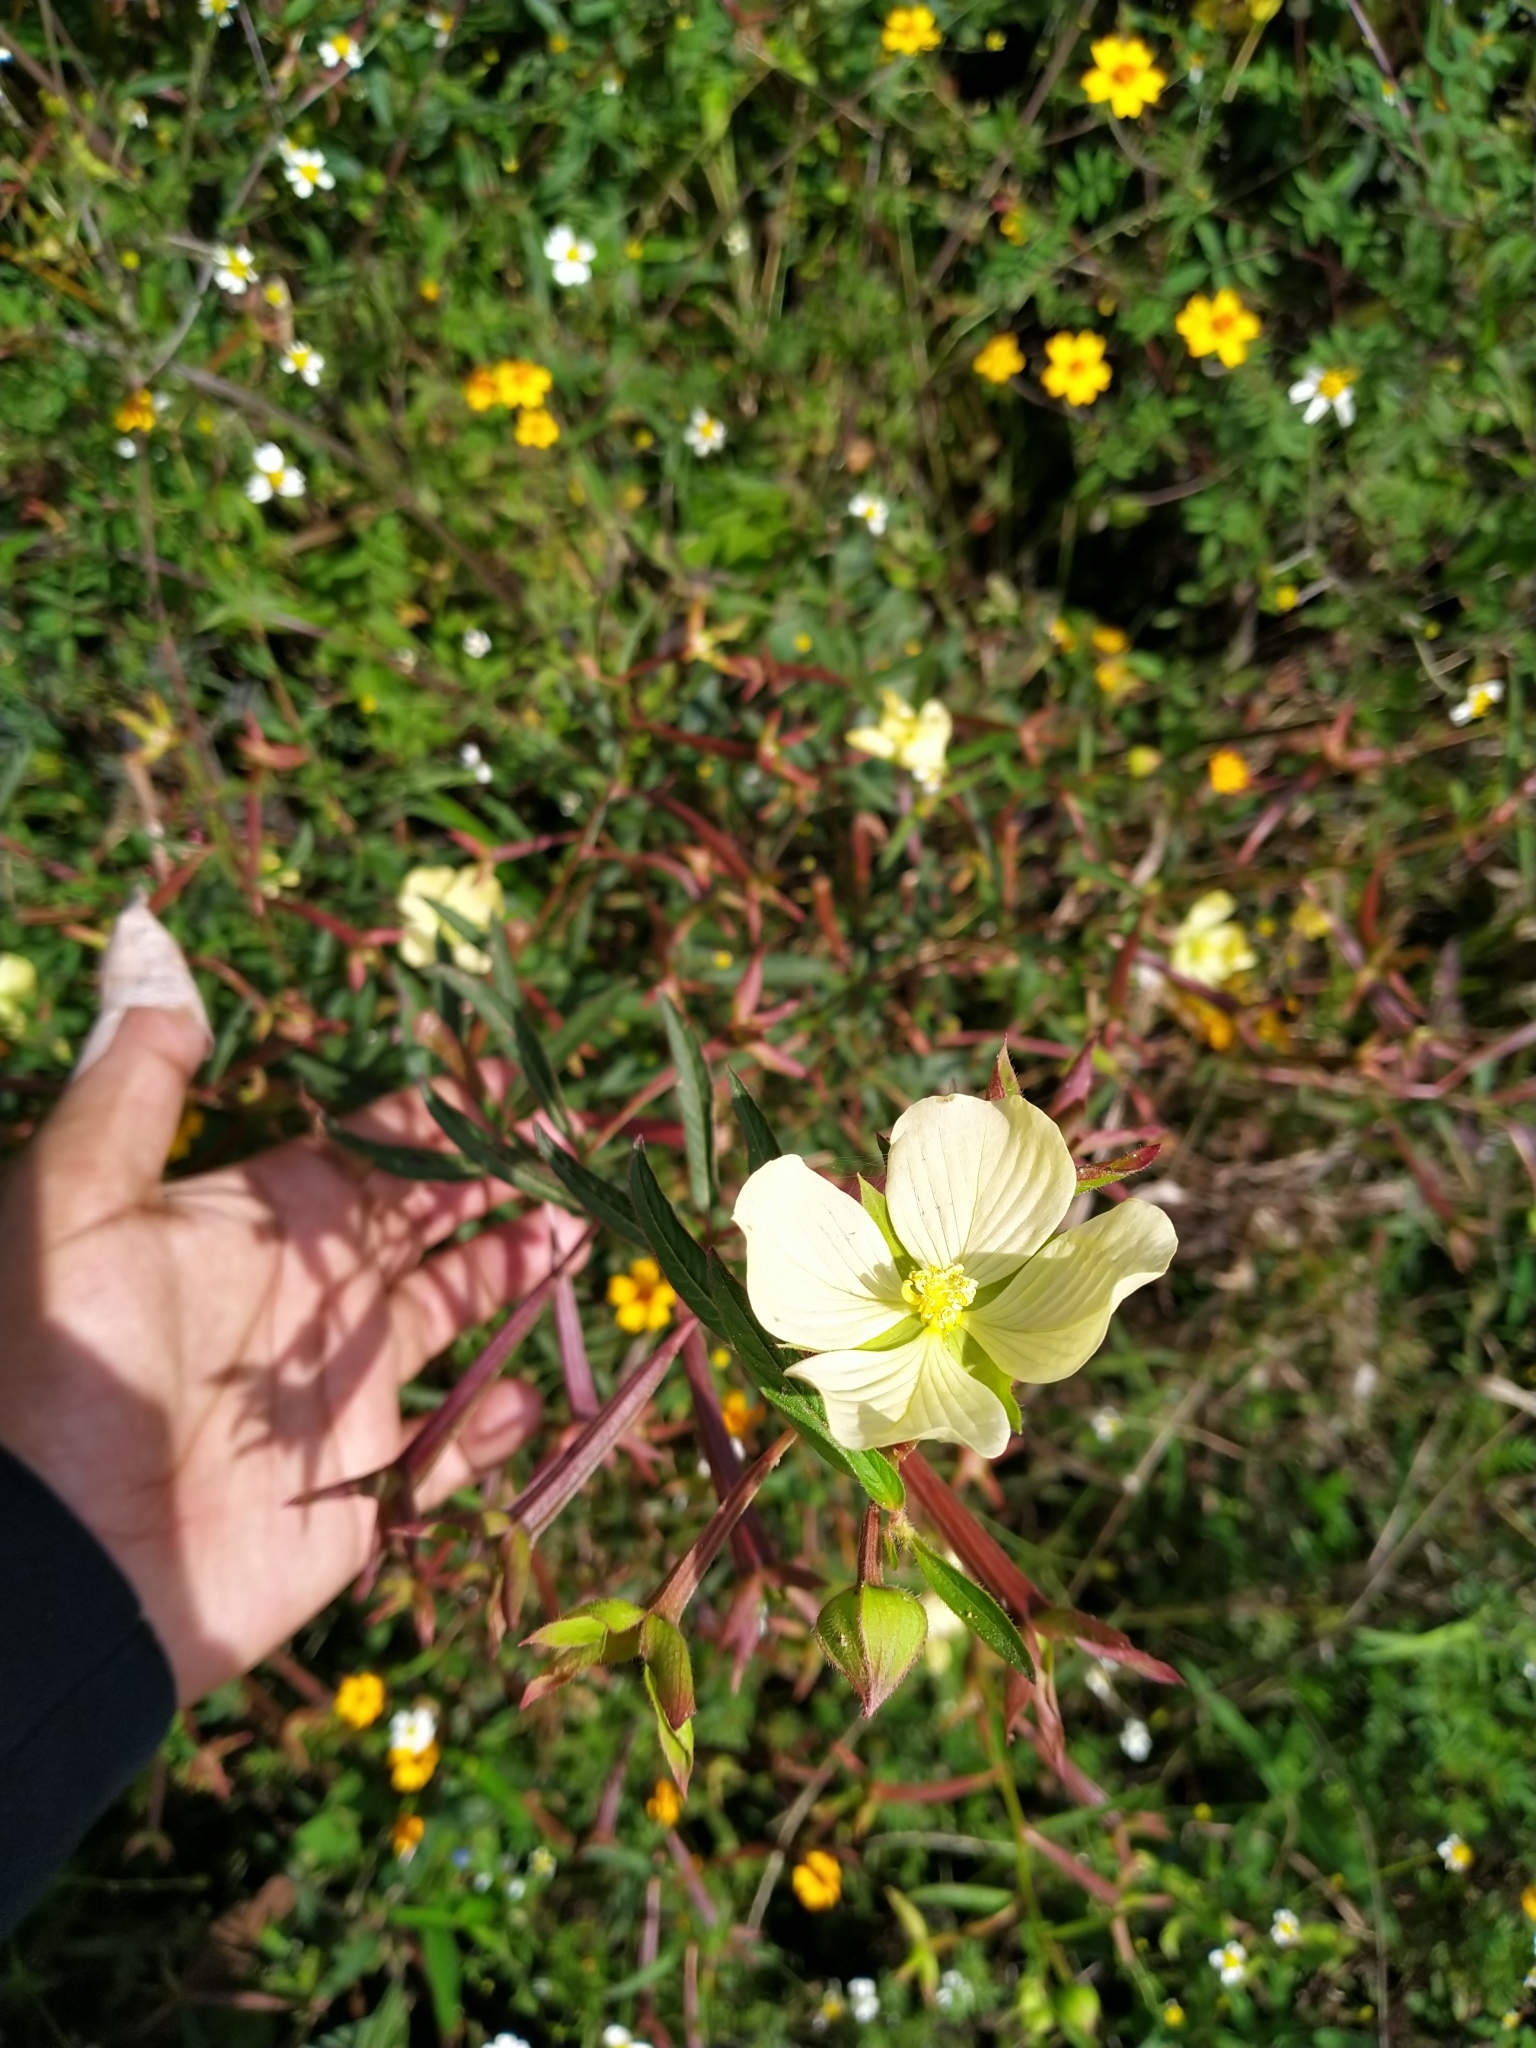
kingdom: Plantae
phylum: Tracheophyta
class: Magnoliopsida
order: Myrtales
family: Onagraceae
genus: Ludwigia
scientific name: Ludwigia octovalvis
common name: Water-primrose
